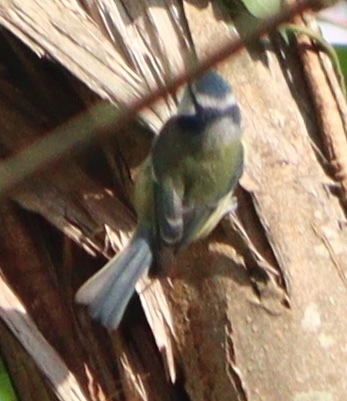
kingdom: Animalia
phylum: Chordata
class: Aves
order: Passeriformes
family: Paridae
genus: Cyanistes
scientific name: Cyanistes caeruleus
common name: Eurasian blue tit
